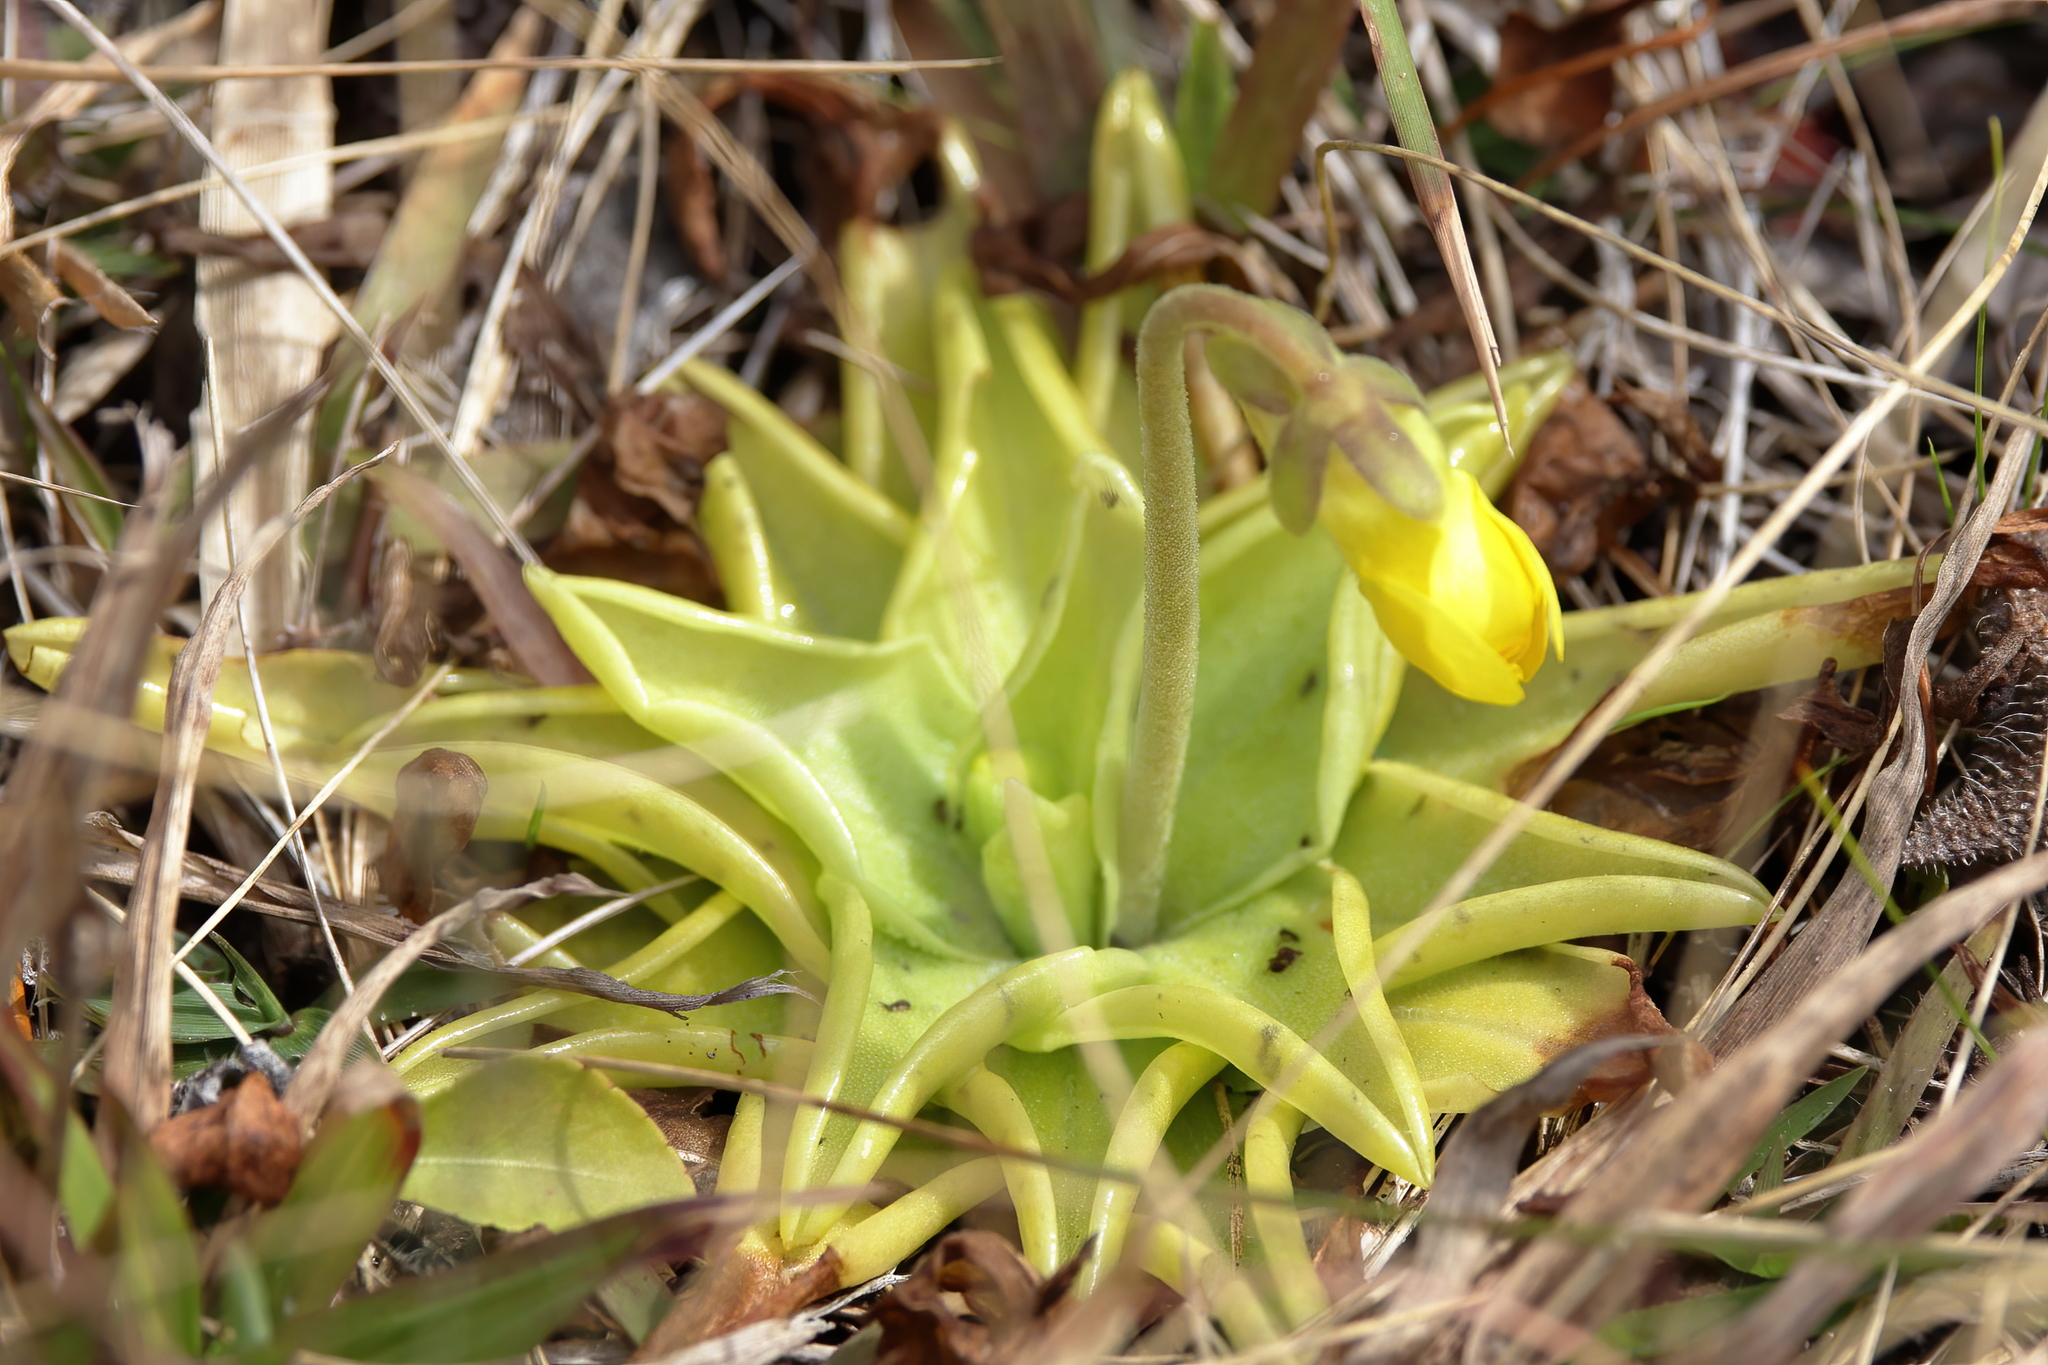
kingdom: Plantae
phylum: Tracheophyta
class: Magnoliopsida
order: Lamiales
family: Lentibulariaceae
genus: Pinguicula
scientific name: Pinguicula lutea
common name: Yellow butterwort
